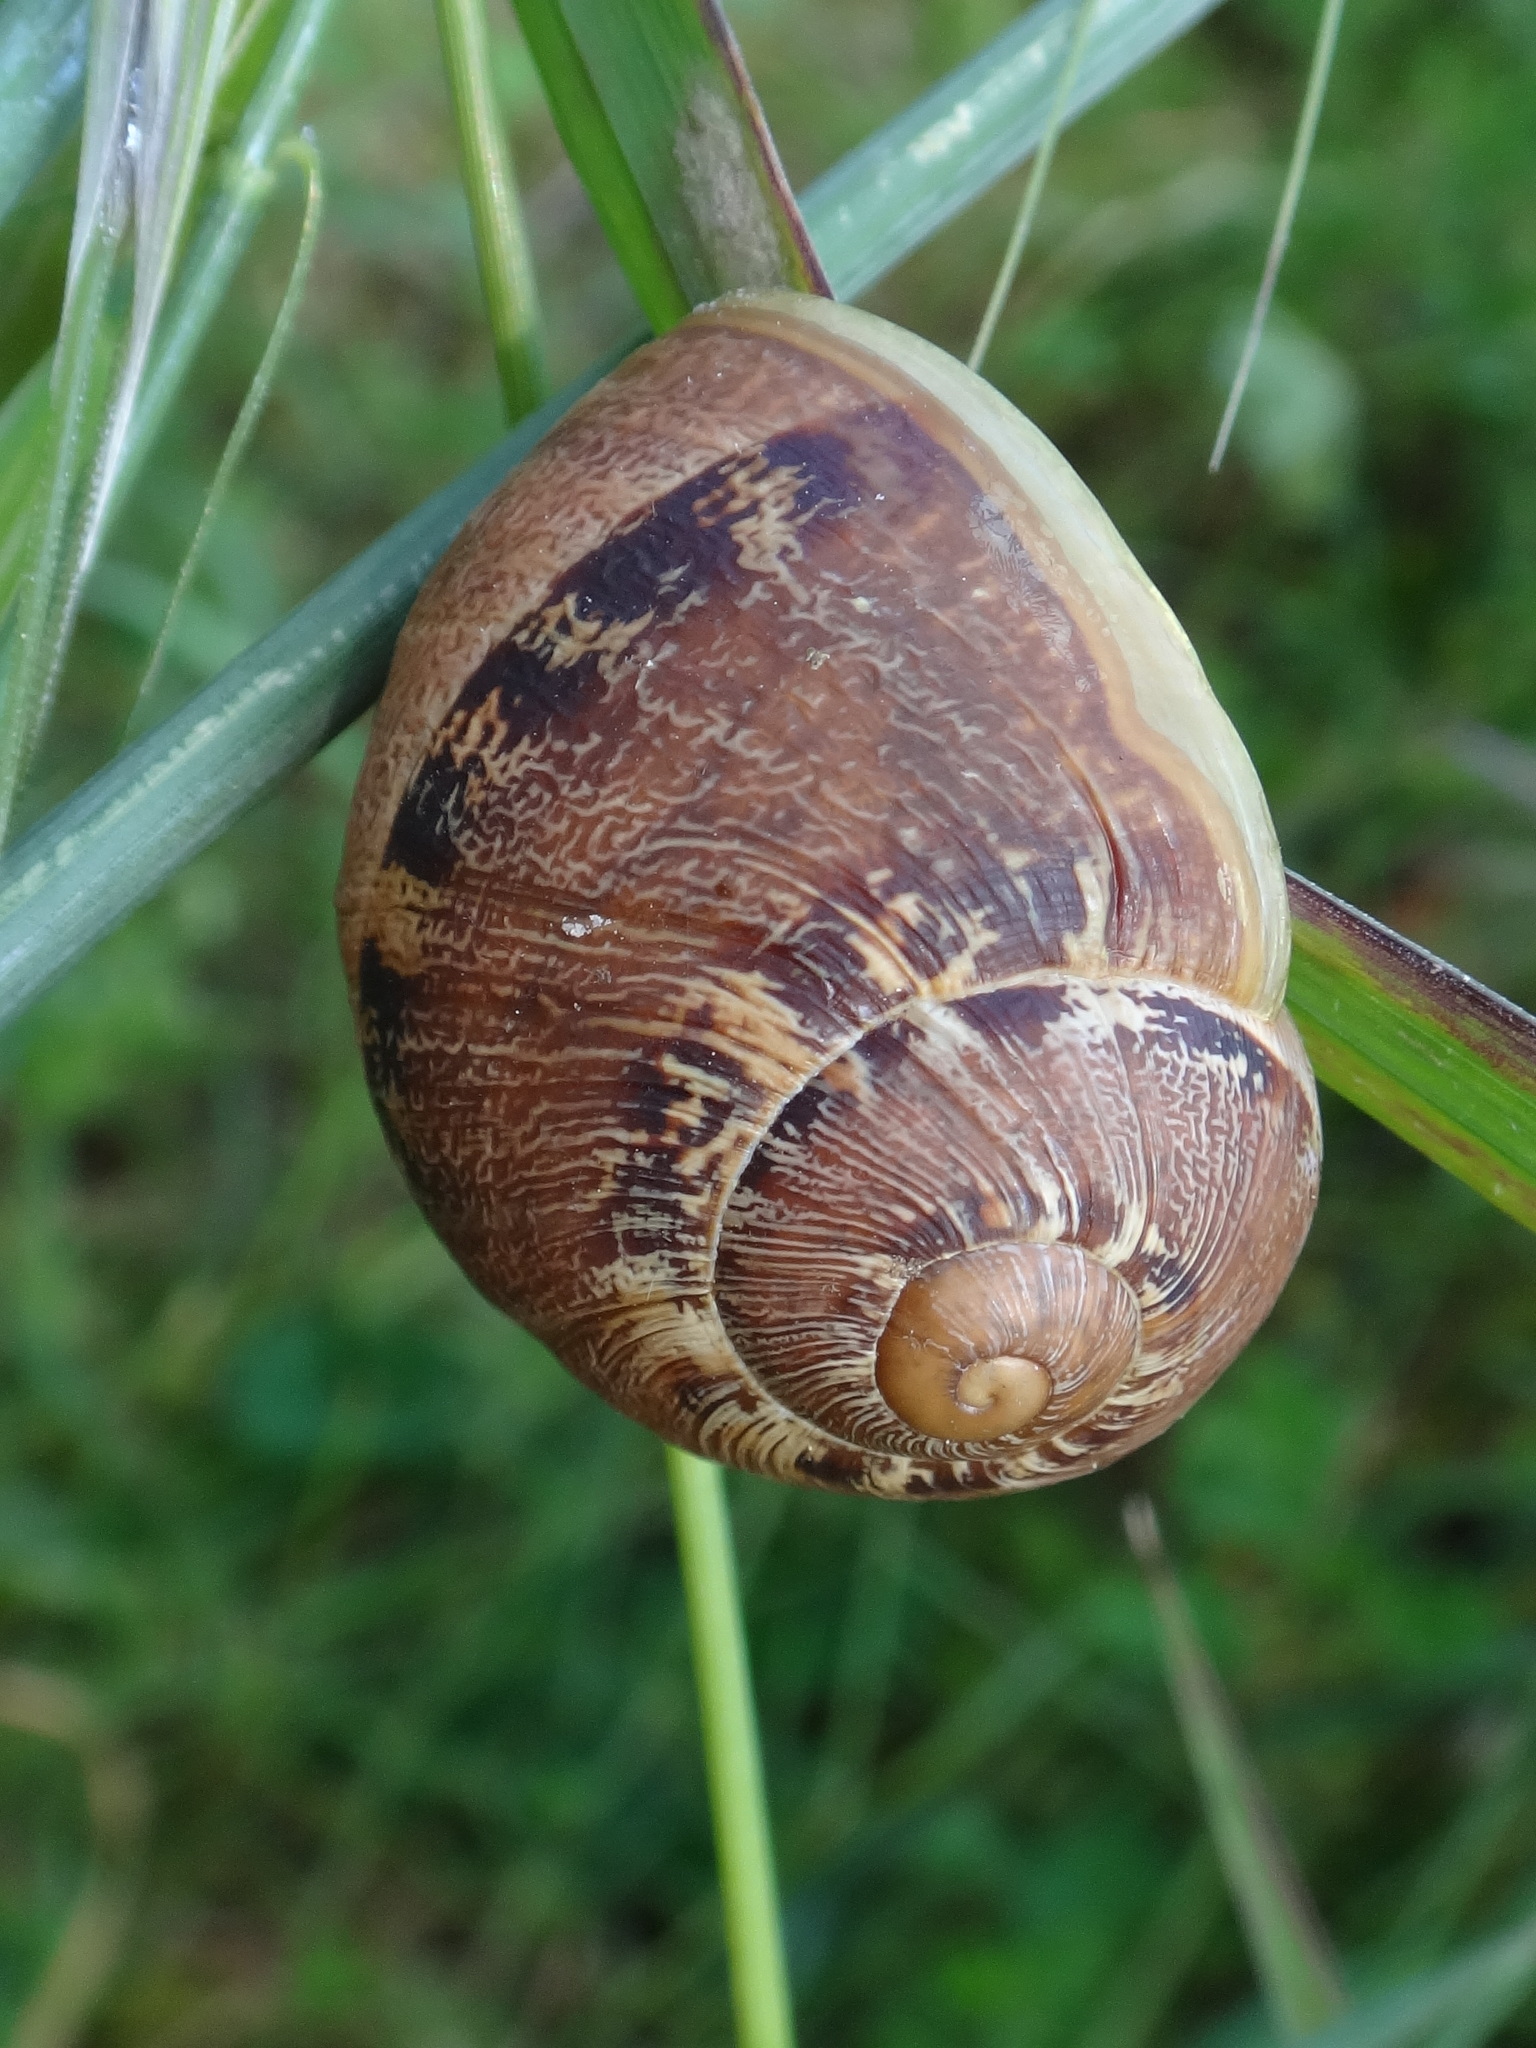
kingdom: Animalia
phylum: Mollusca
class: Gastropoda
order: Stylommatophora
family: Helicidae
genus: Cornu
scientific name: Cornu aspersum
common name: Brown garden snail
